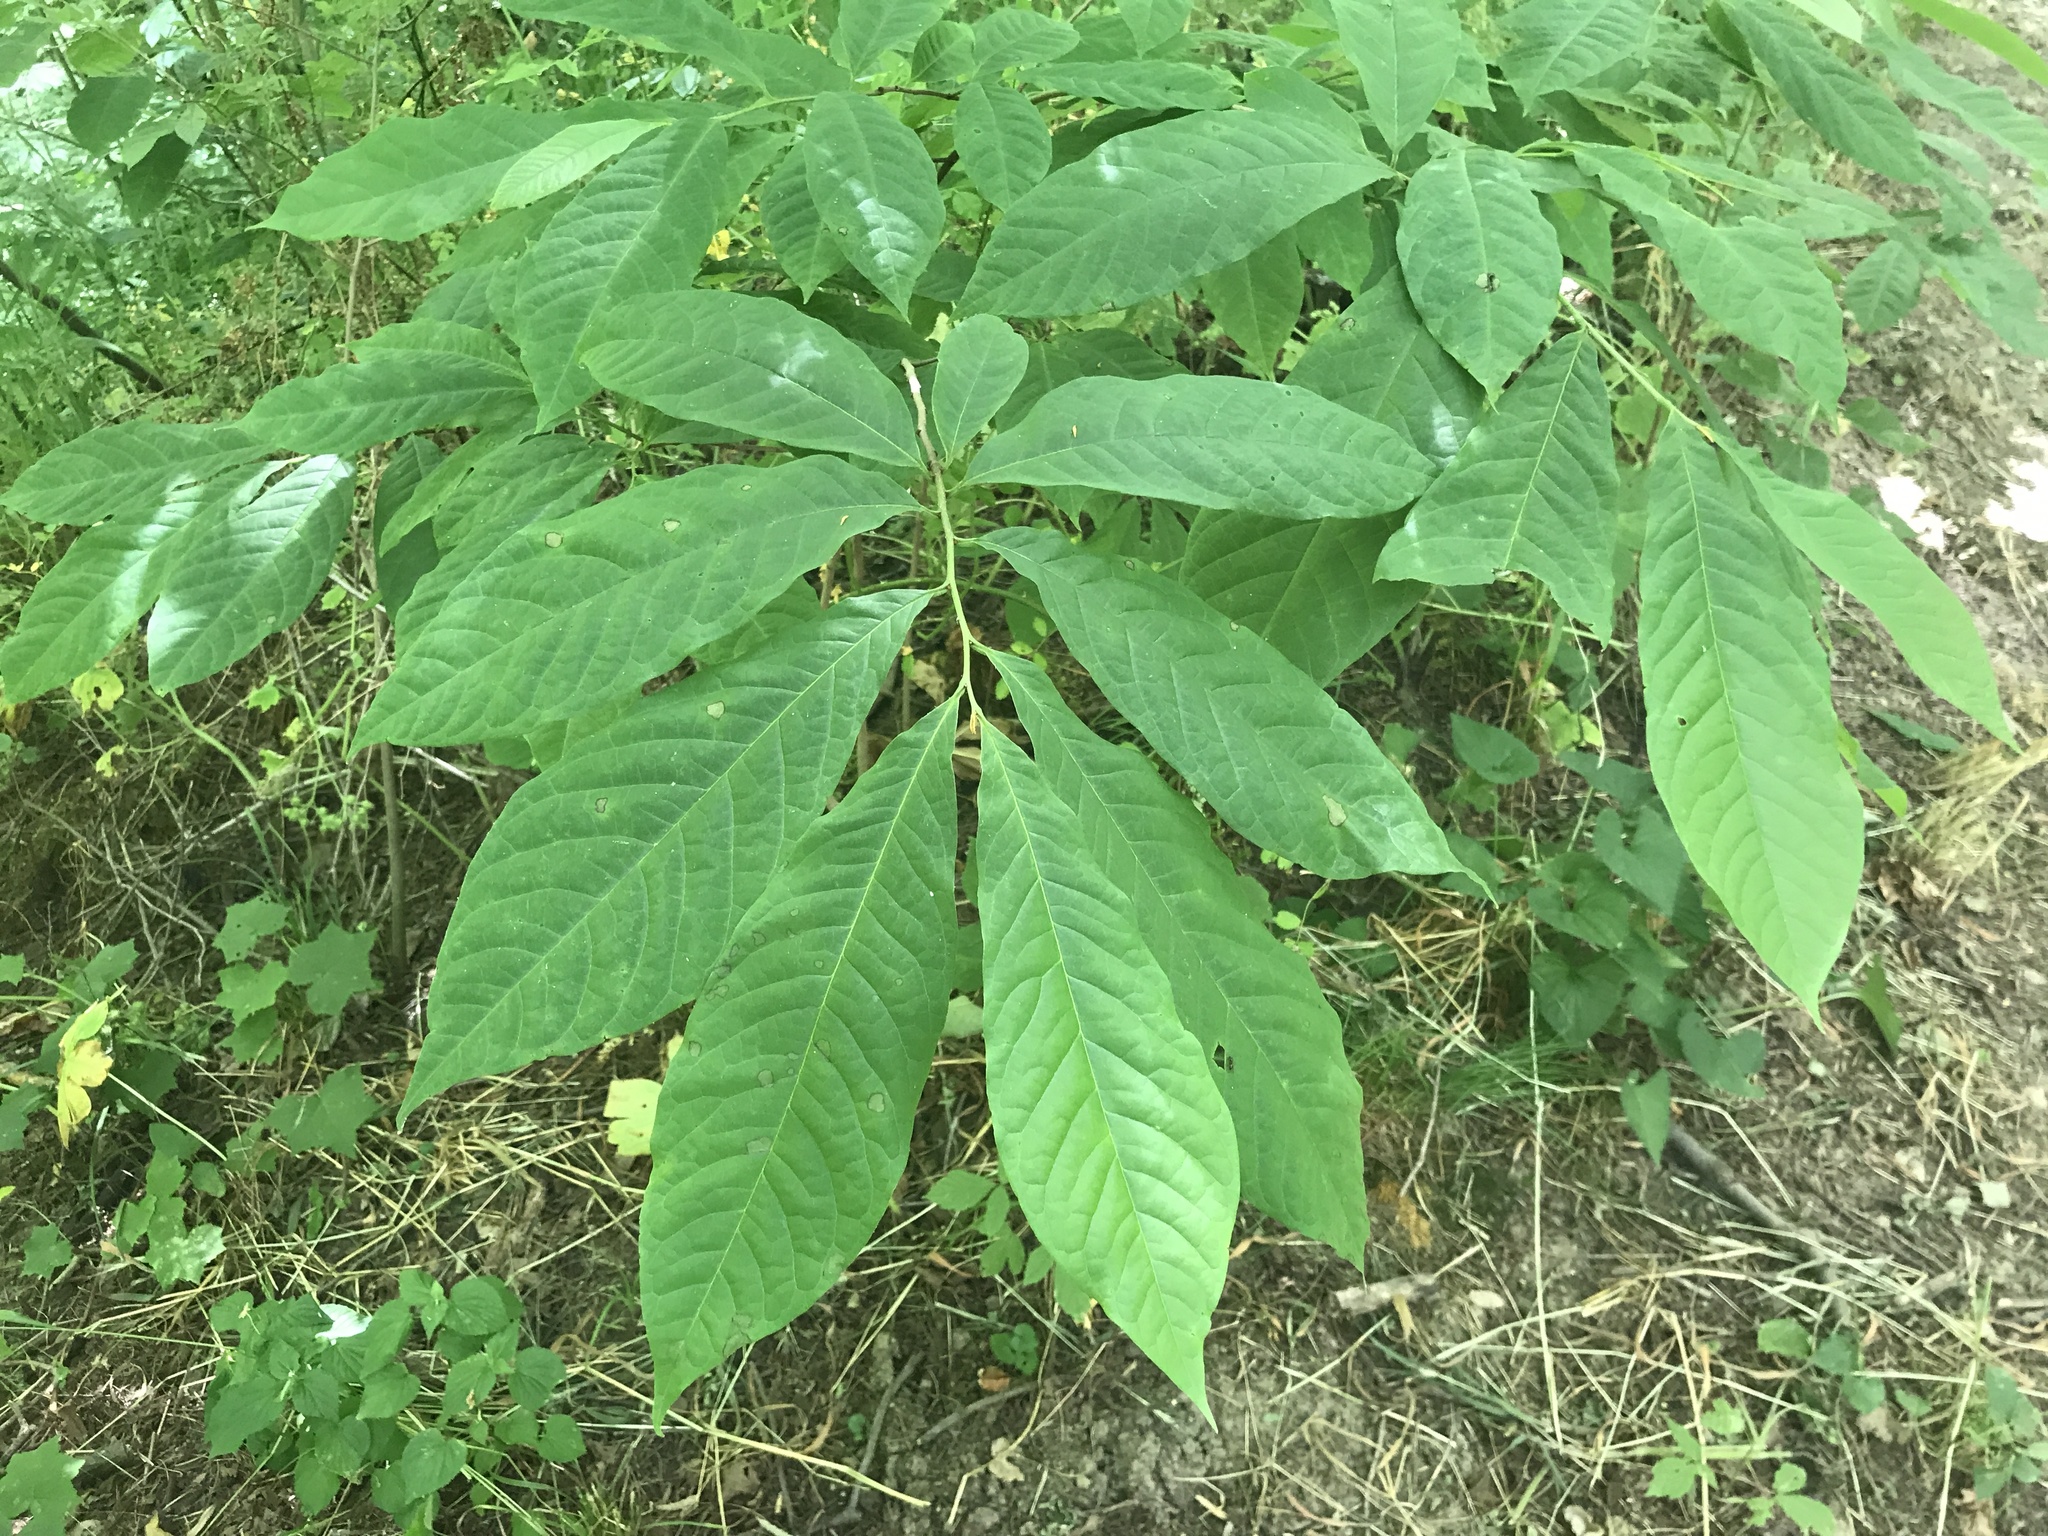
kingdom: Plantae
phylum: Tracheophyta
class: Magnoliopsida
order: Magnoliales
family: Annonaceae
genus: Asimina
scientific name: Asimina triloba
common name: Dog-banana
